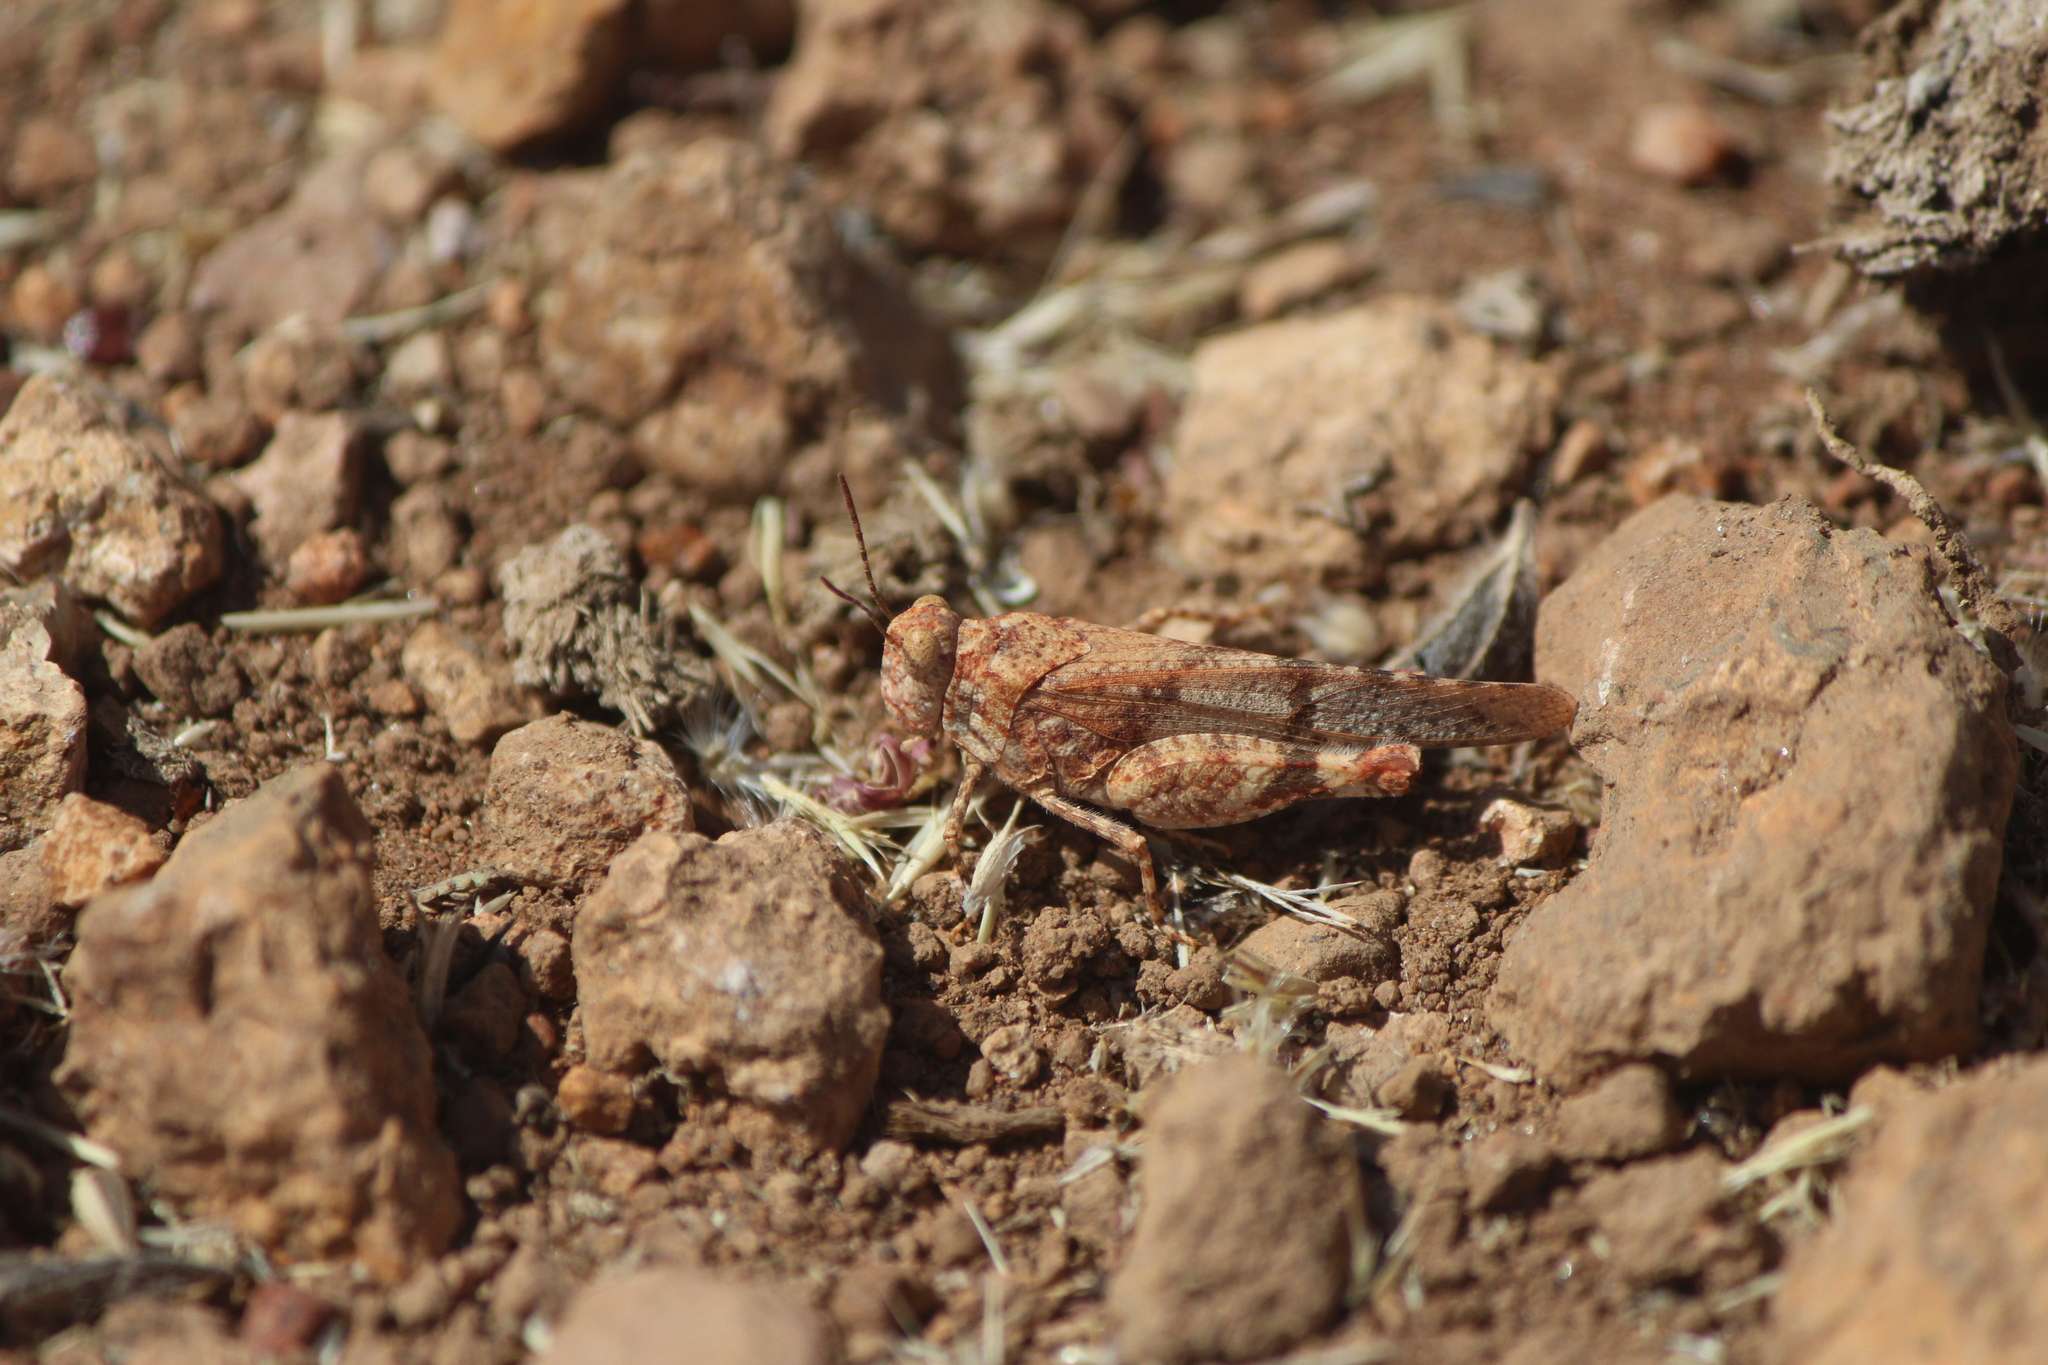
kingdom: Animalia
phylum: Arthropoda
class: Insecta
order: Orthoptera
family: Acrididae
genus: Lactista
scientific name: Lactista azteca
